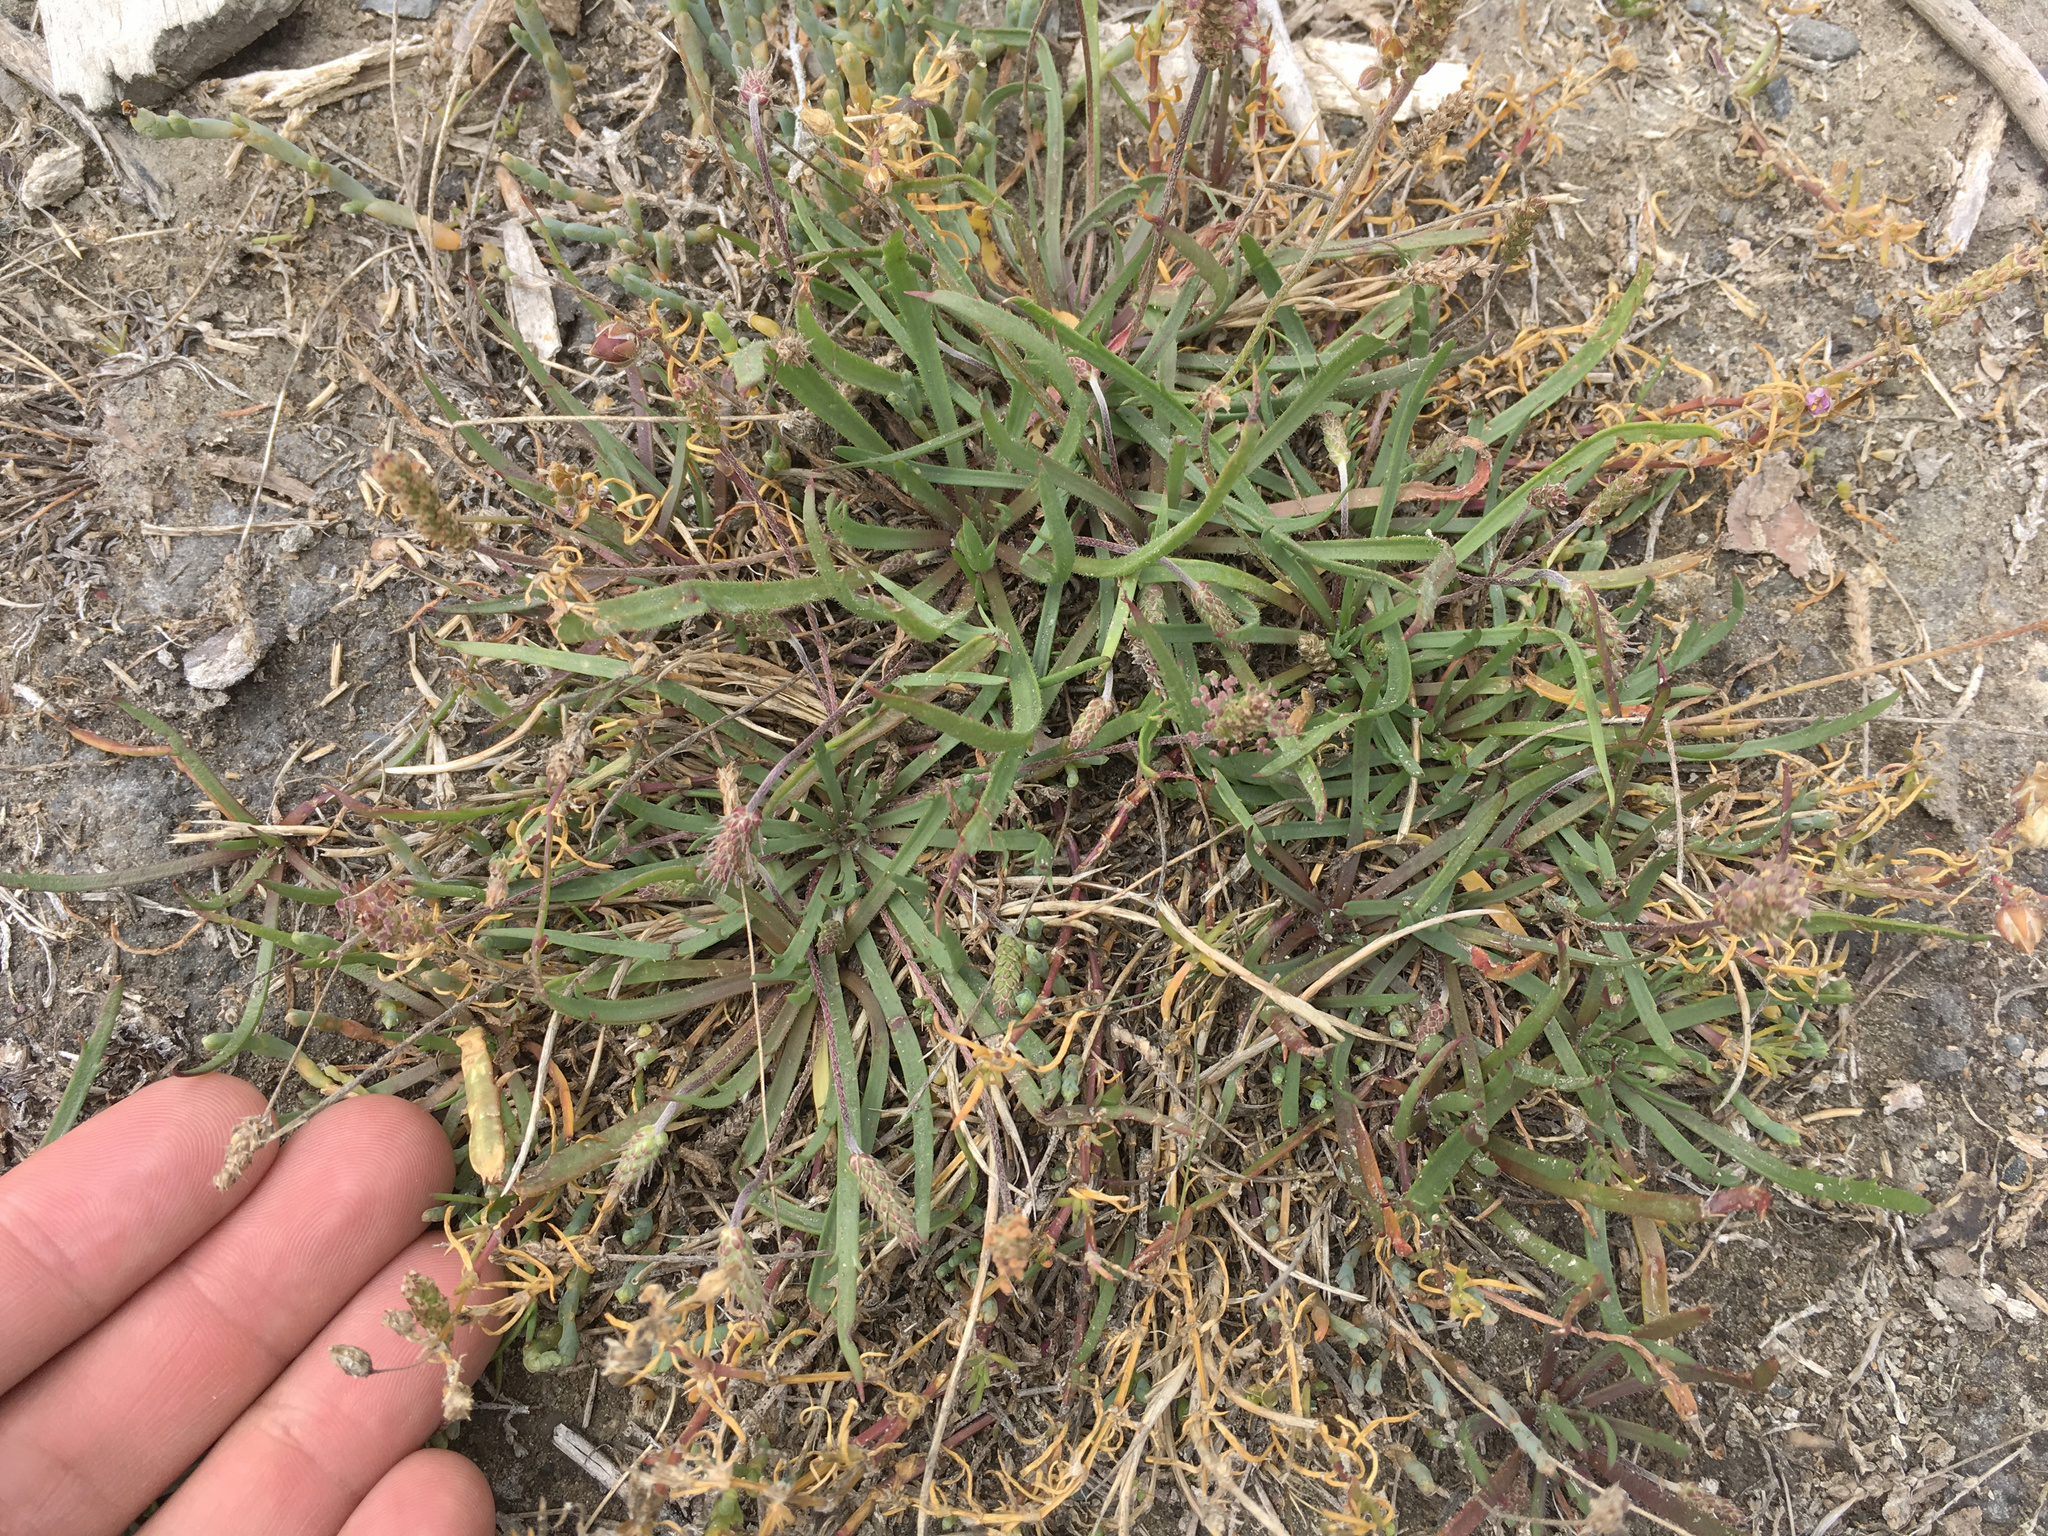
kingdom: Plantae
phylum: Tracheophyta
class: Magnoliopsida
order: Lamiales
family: Plantaginaceae
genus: Plantago
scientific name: Plantago coronopus
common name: Buck's-horn plantain
